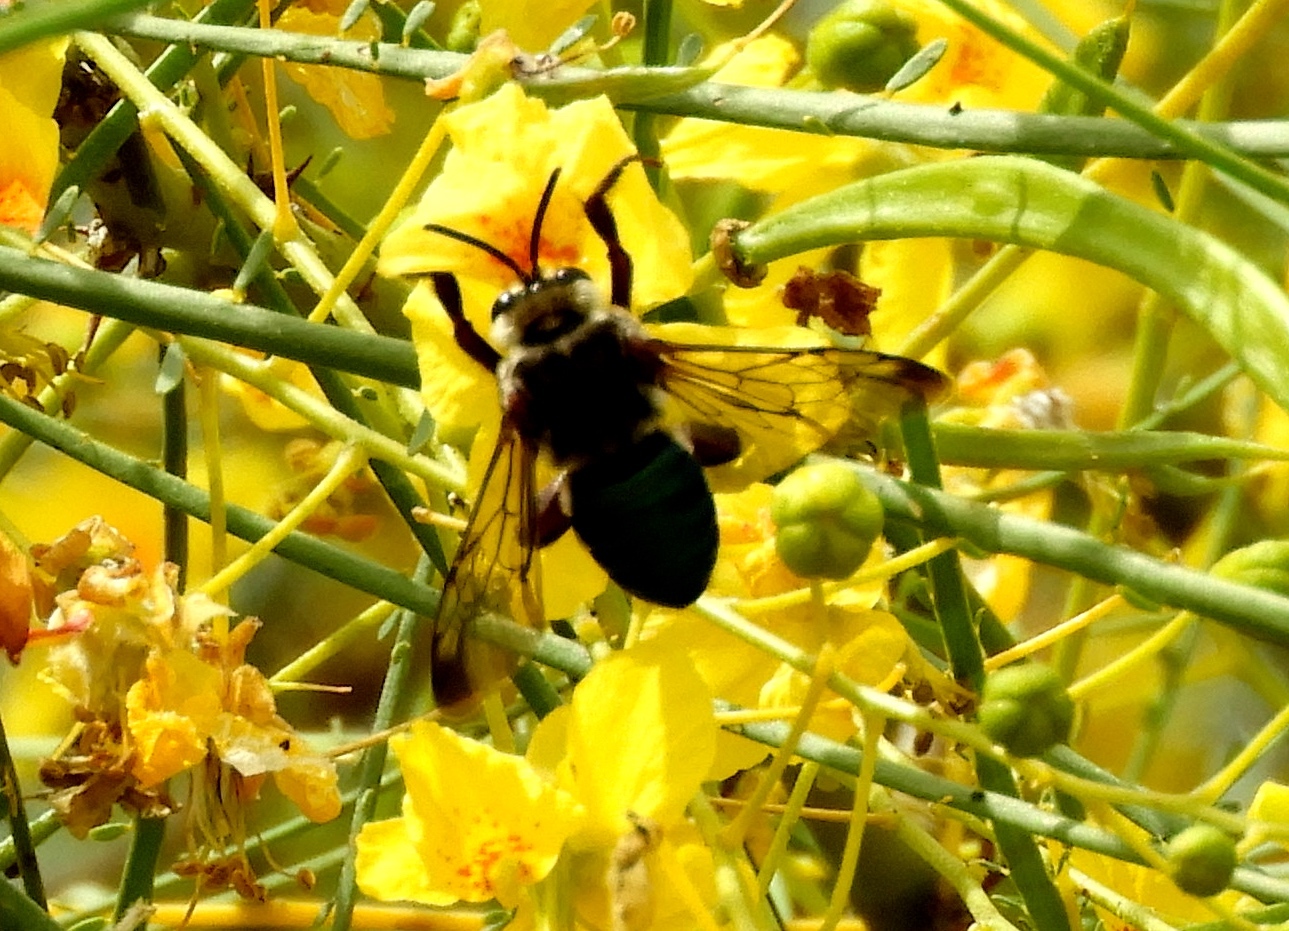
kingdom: Animalia
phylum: Arthropoda
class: Insecta
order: Hymenoptera
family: Apidae
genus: Mesoplia
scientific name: Mesoplia
